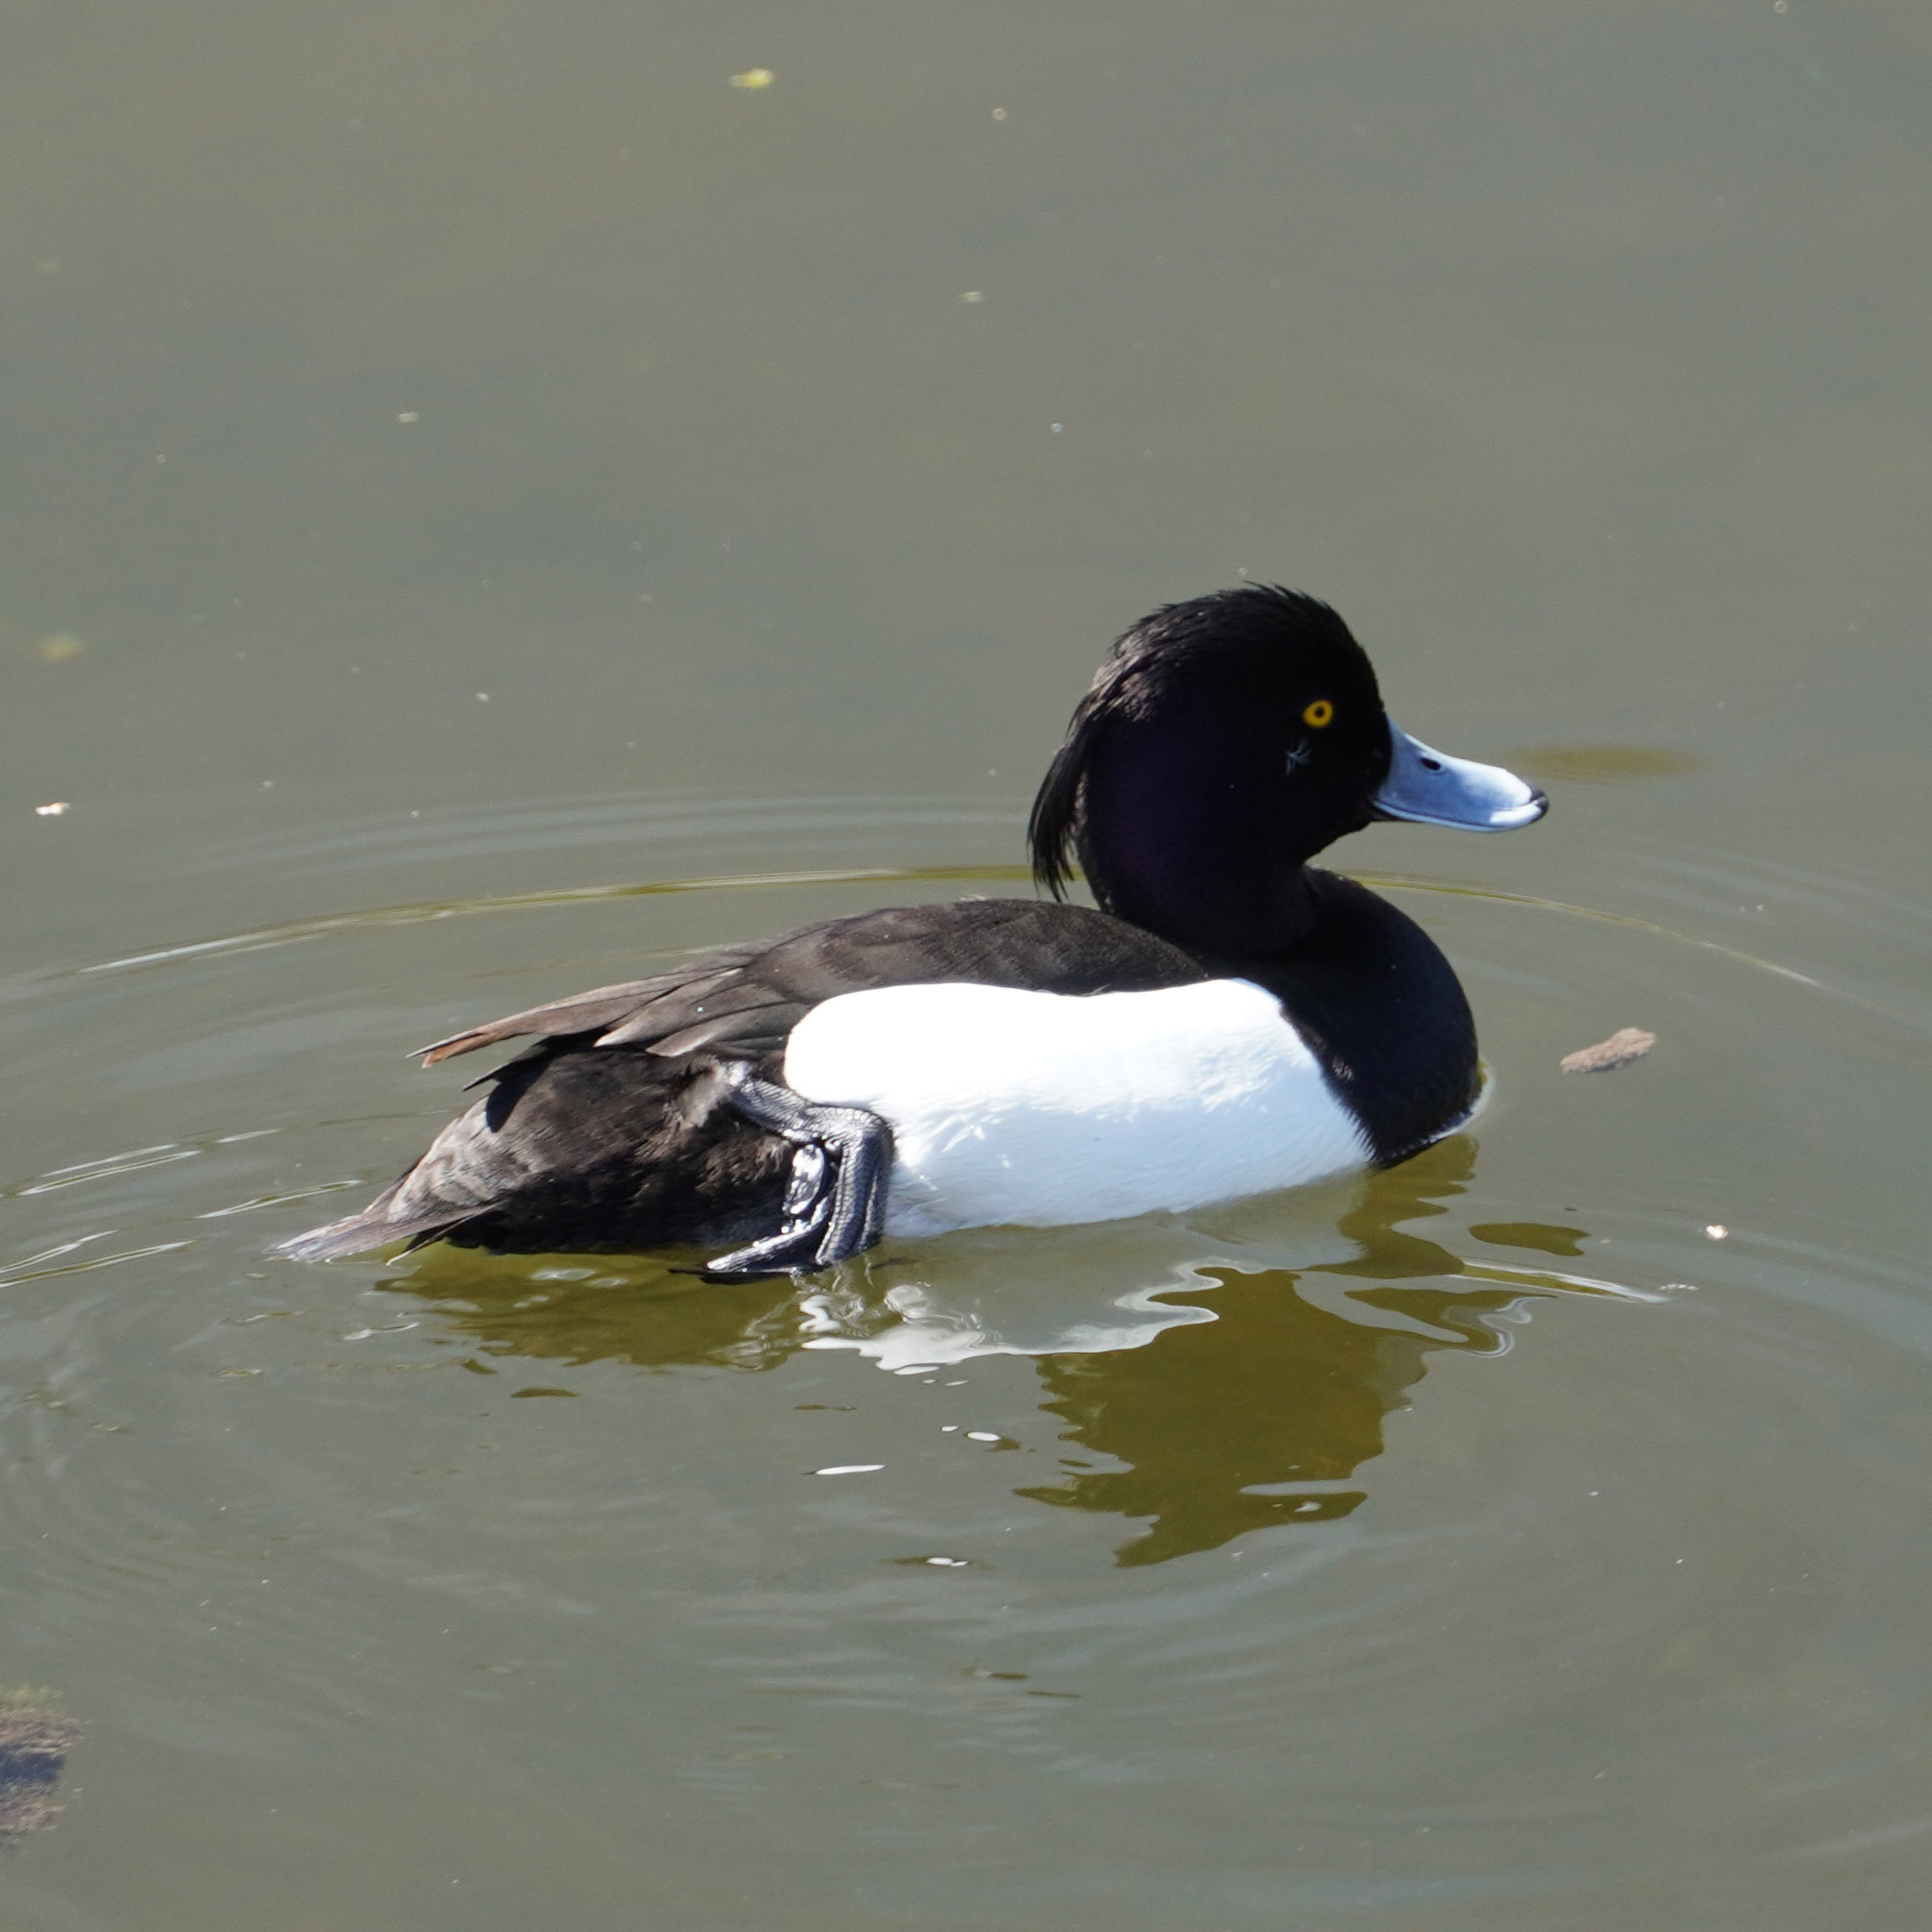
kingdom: Animalia
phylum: Chordata
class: Aves
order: Anseriformes
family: Anatidae
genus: Aythya
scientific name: Aythya fuligula
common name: Tufted duck
